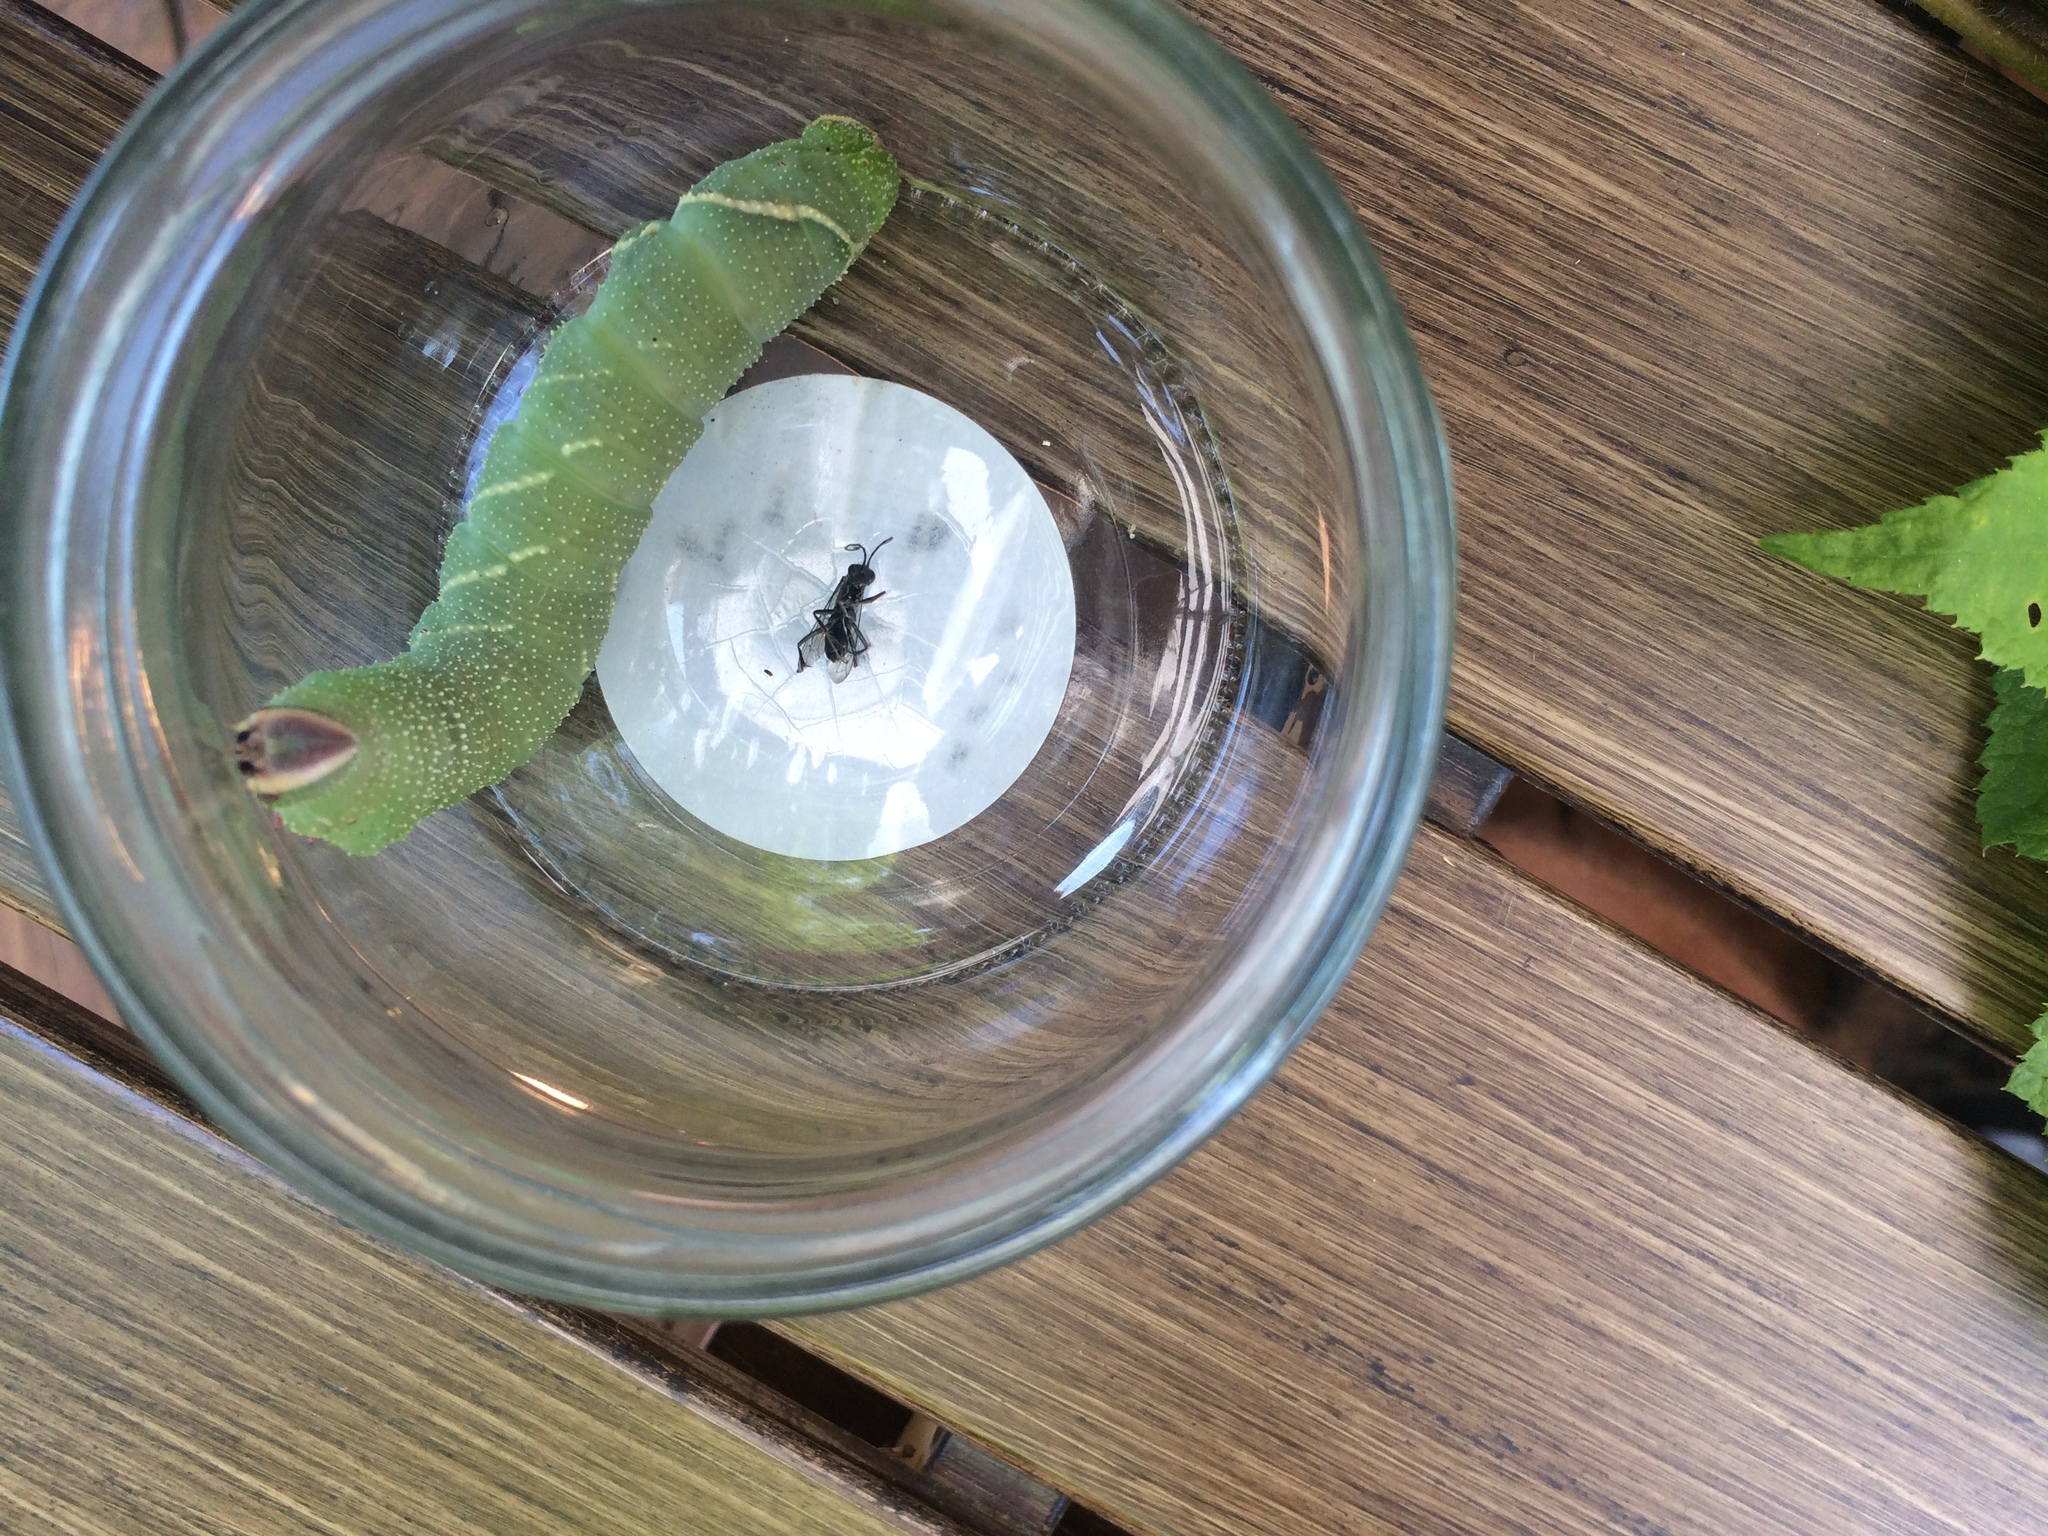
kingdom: Animalia
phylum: Arthropoda
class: Insecta
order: Lepidoptera
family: Sphingidae
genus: Pachysphinx
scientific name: Pachysphinx modesta
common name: Big poplar sphinx
